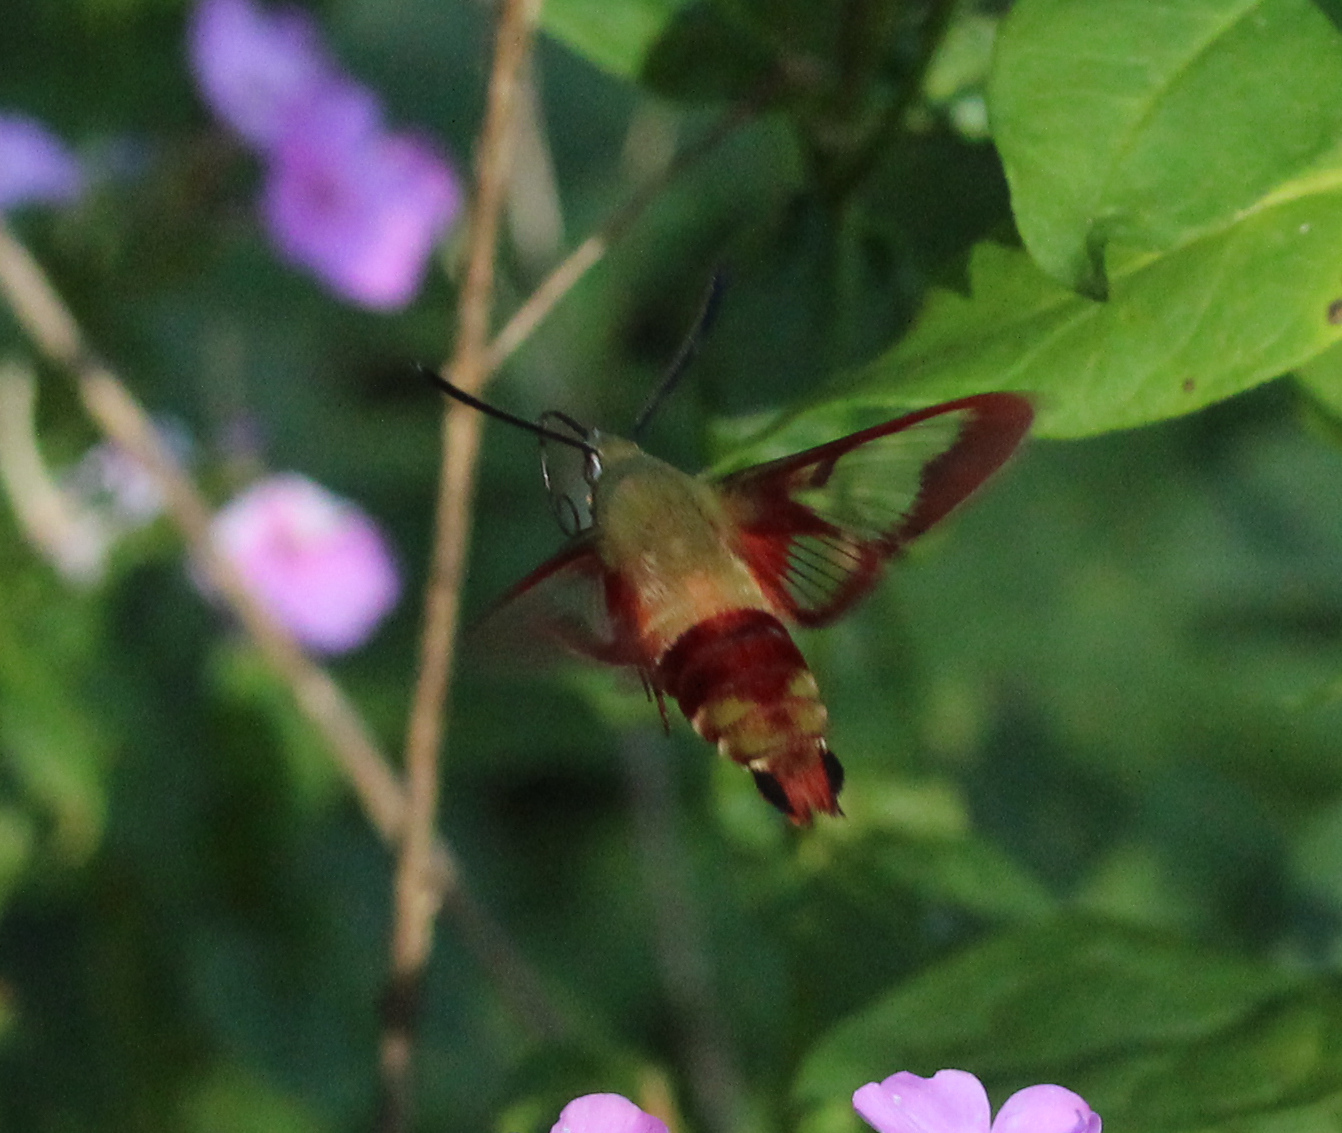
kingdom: Animalia
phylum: Arthropoda
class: Insecta
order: Lepidoptera
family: Sphingidae
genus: Hemaris
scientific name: Hemaris thysbe
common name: Common clear-wing
